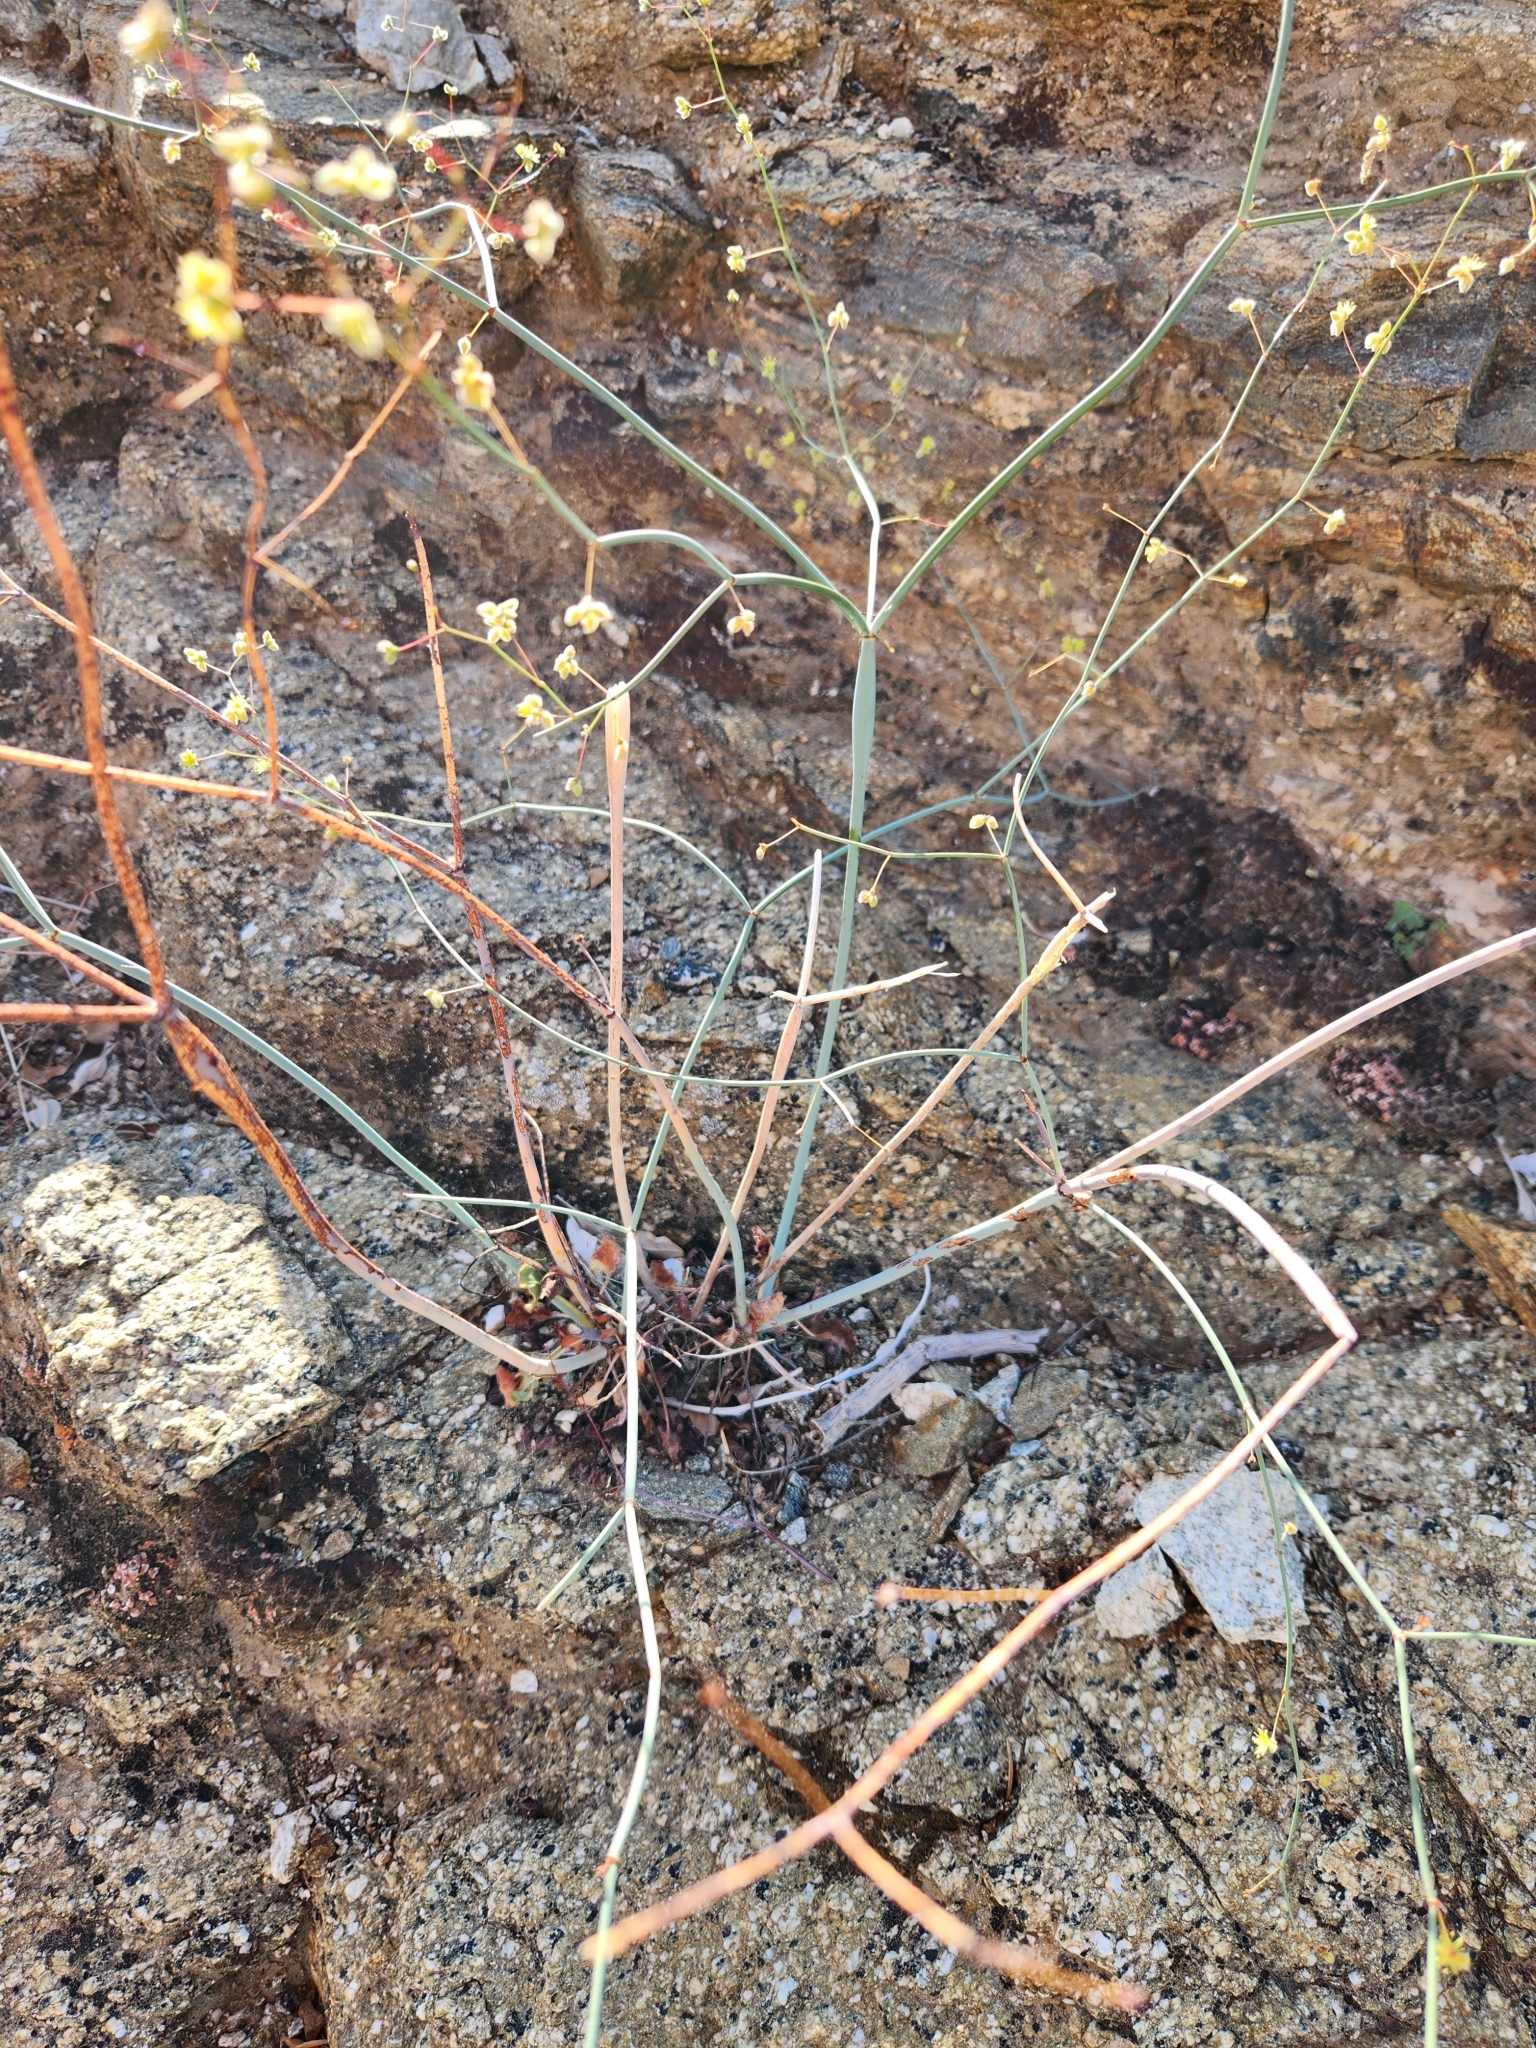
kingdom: Plantae
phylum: Tracheophyta
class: Magnoliopsida
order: Caryophyllales
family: Polygonaceae
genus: Eriogonum
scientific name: Eriogonum inflatum
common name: Desert trumpet
